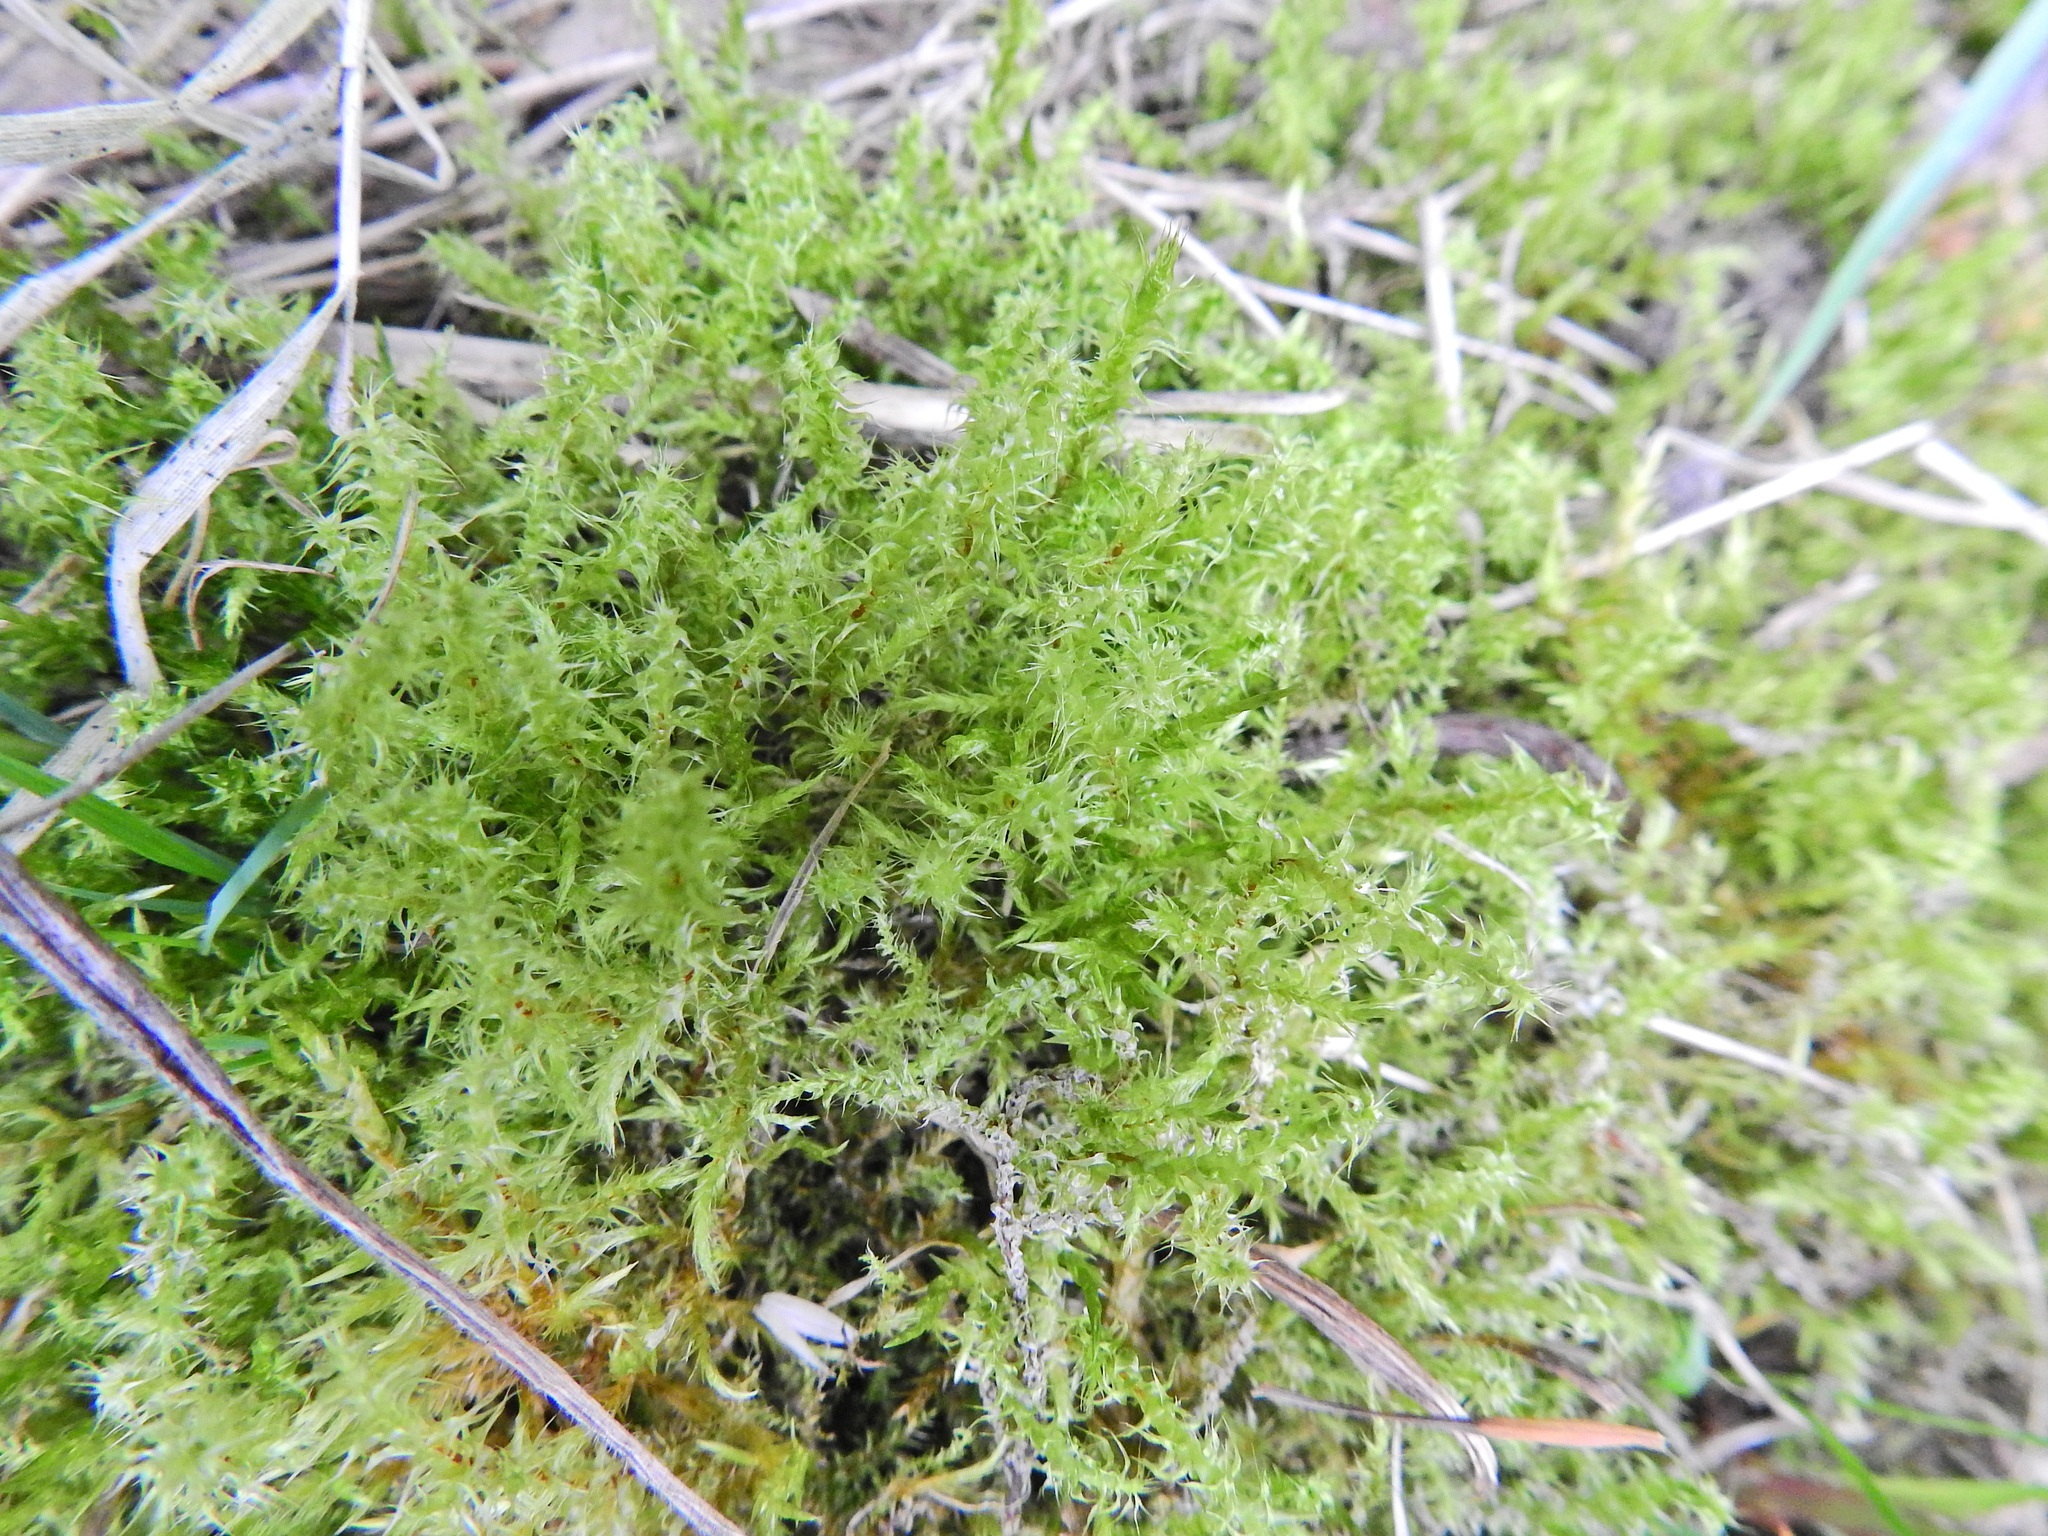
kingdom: Plantae
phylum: Bryophyta
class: Bryopsida
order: Hypnales
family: Hylocomiaceae
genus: Rhytidiadelphus
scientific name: Rhytidiadelphus squarrosus
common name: Springy turf-moss
